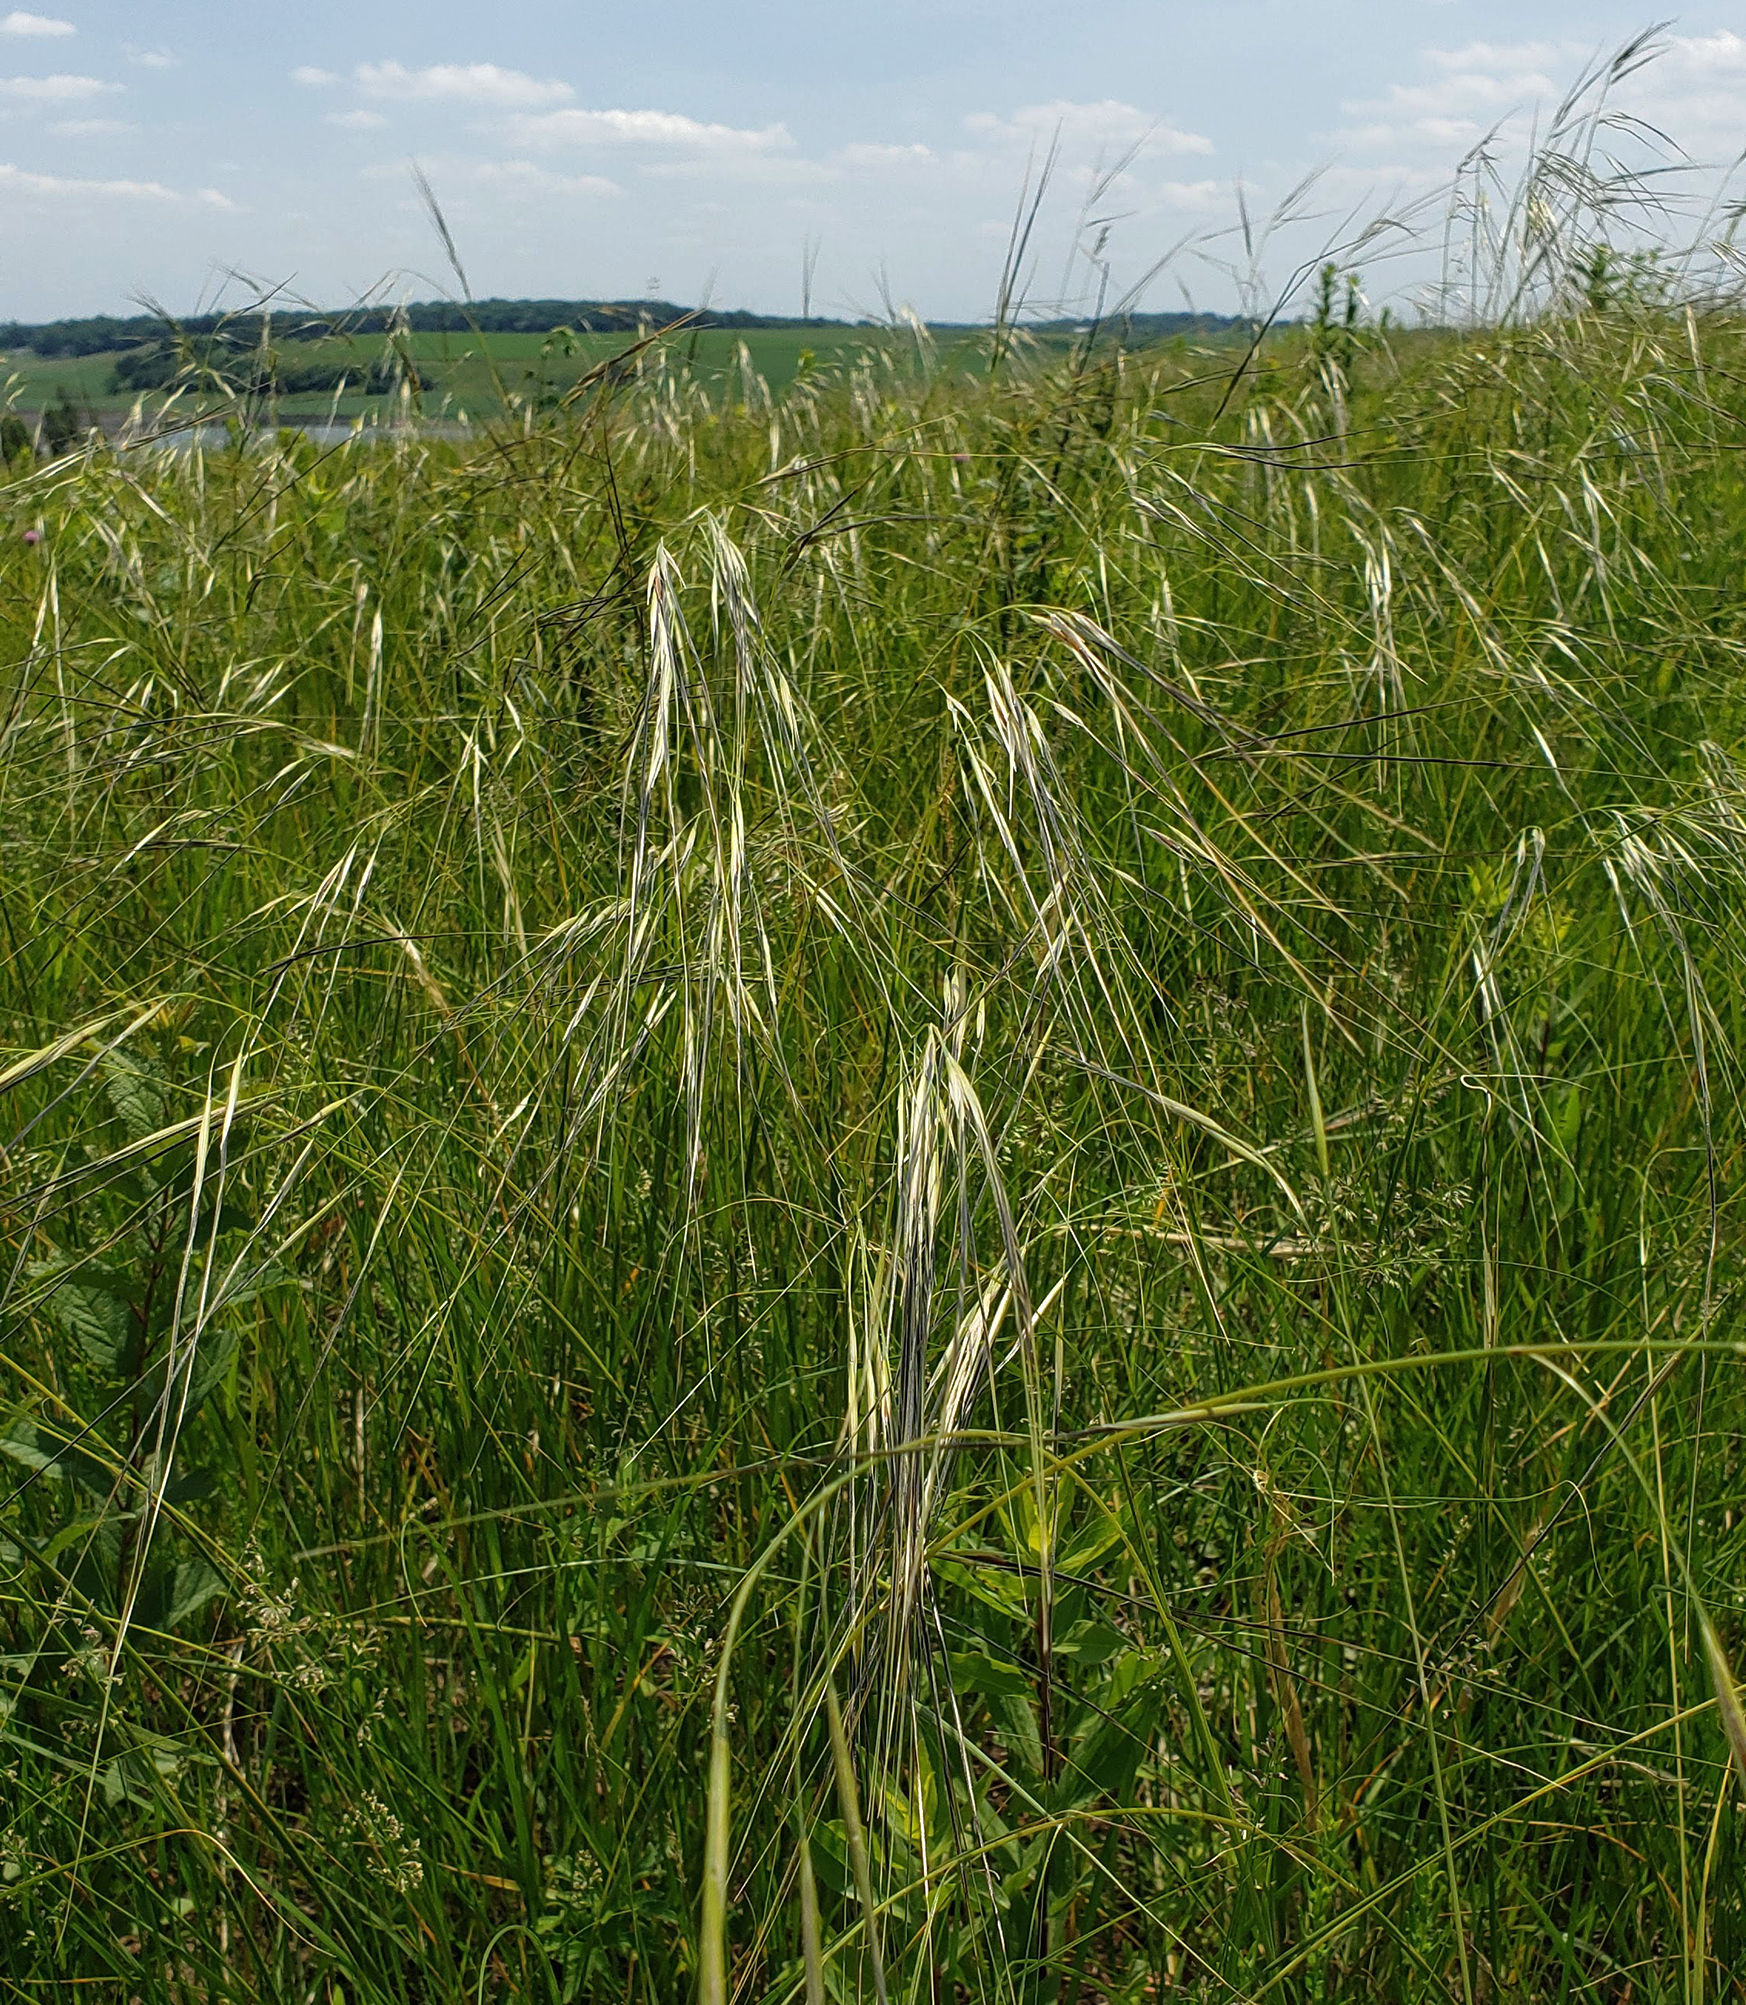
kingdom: Plantae
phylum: Tracheophyta
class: Liliopsida
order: Poales
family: Poaceae
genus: Hesperostipa
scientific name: Hesperostipa spartea
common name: Porcupine grass
